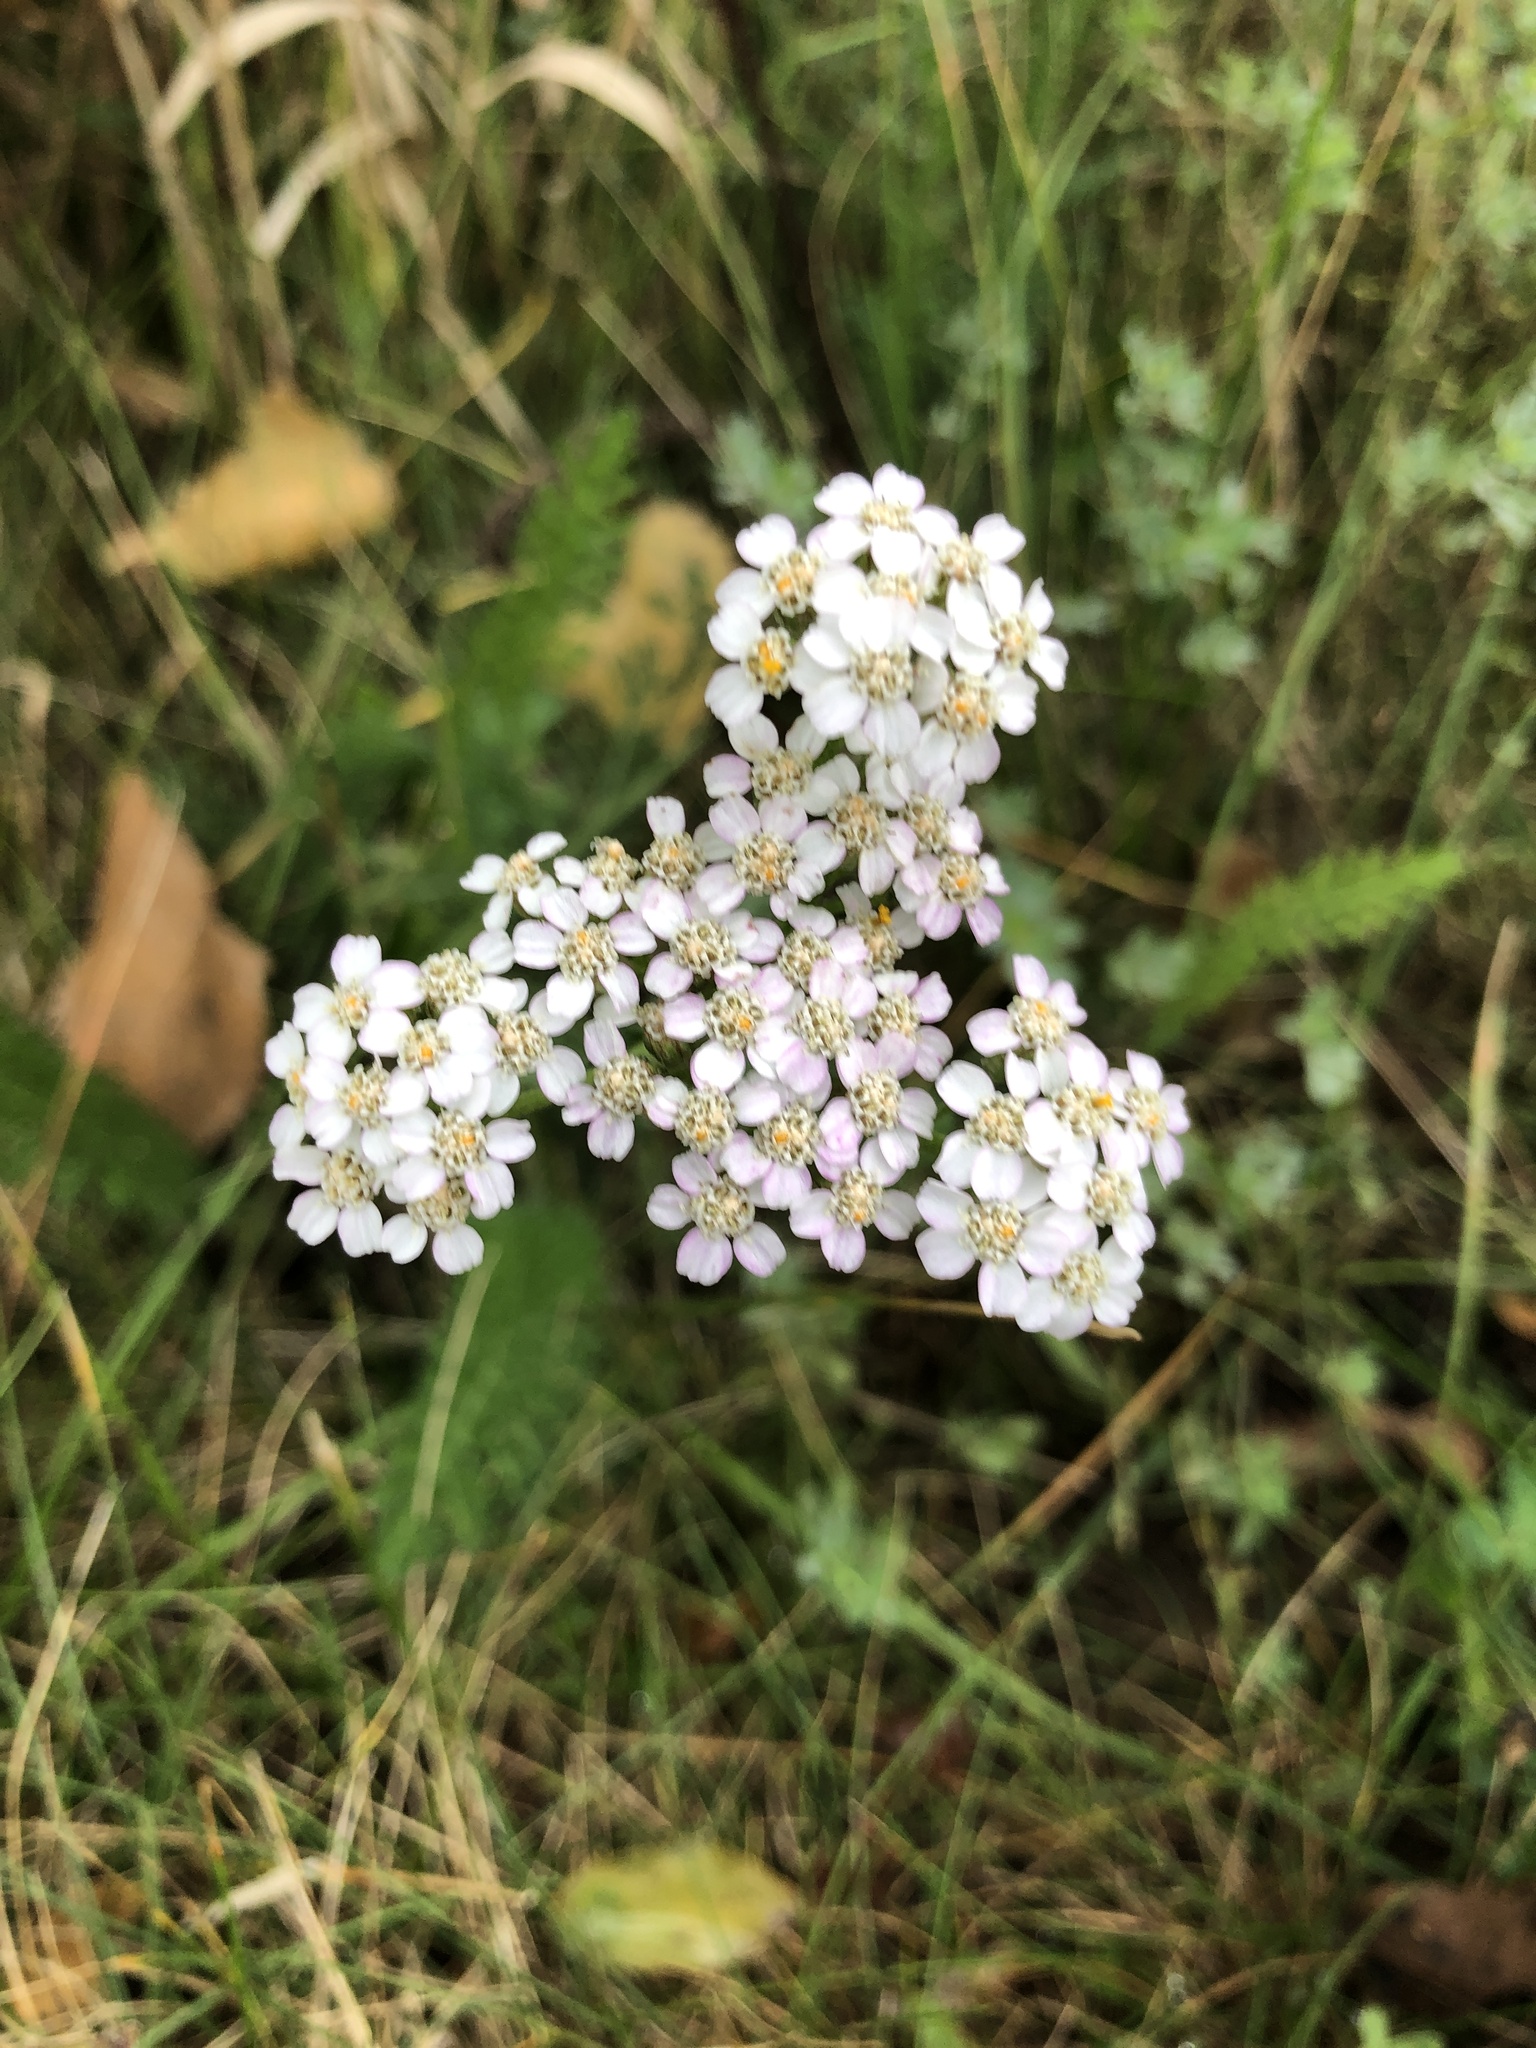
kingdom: Plantae
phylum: Tracheophyta
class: Magnoliopsida
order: Asterales
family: Asteraceae
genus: Achillea
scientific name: Achillea millefolium
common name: Yarrow
